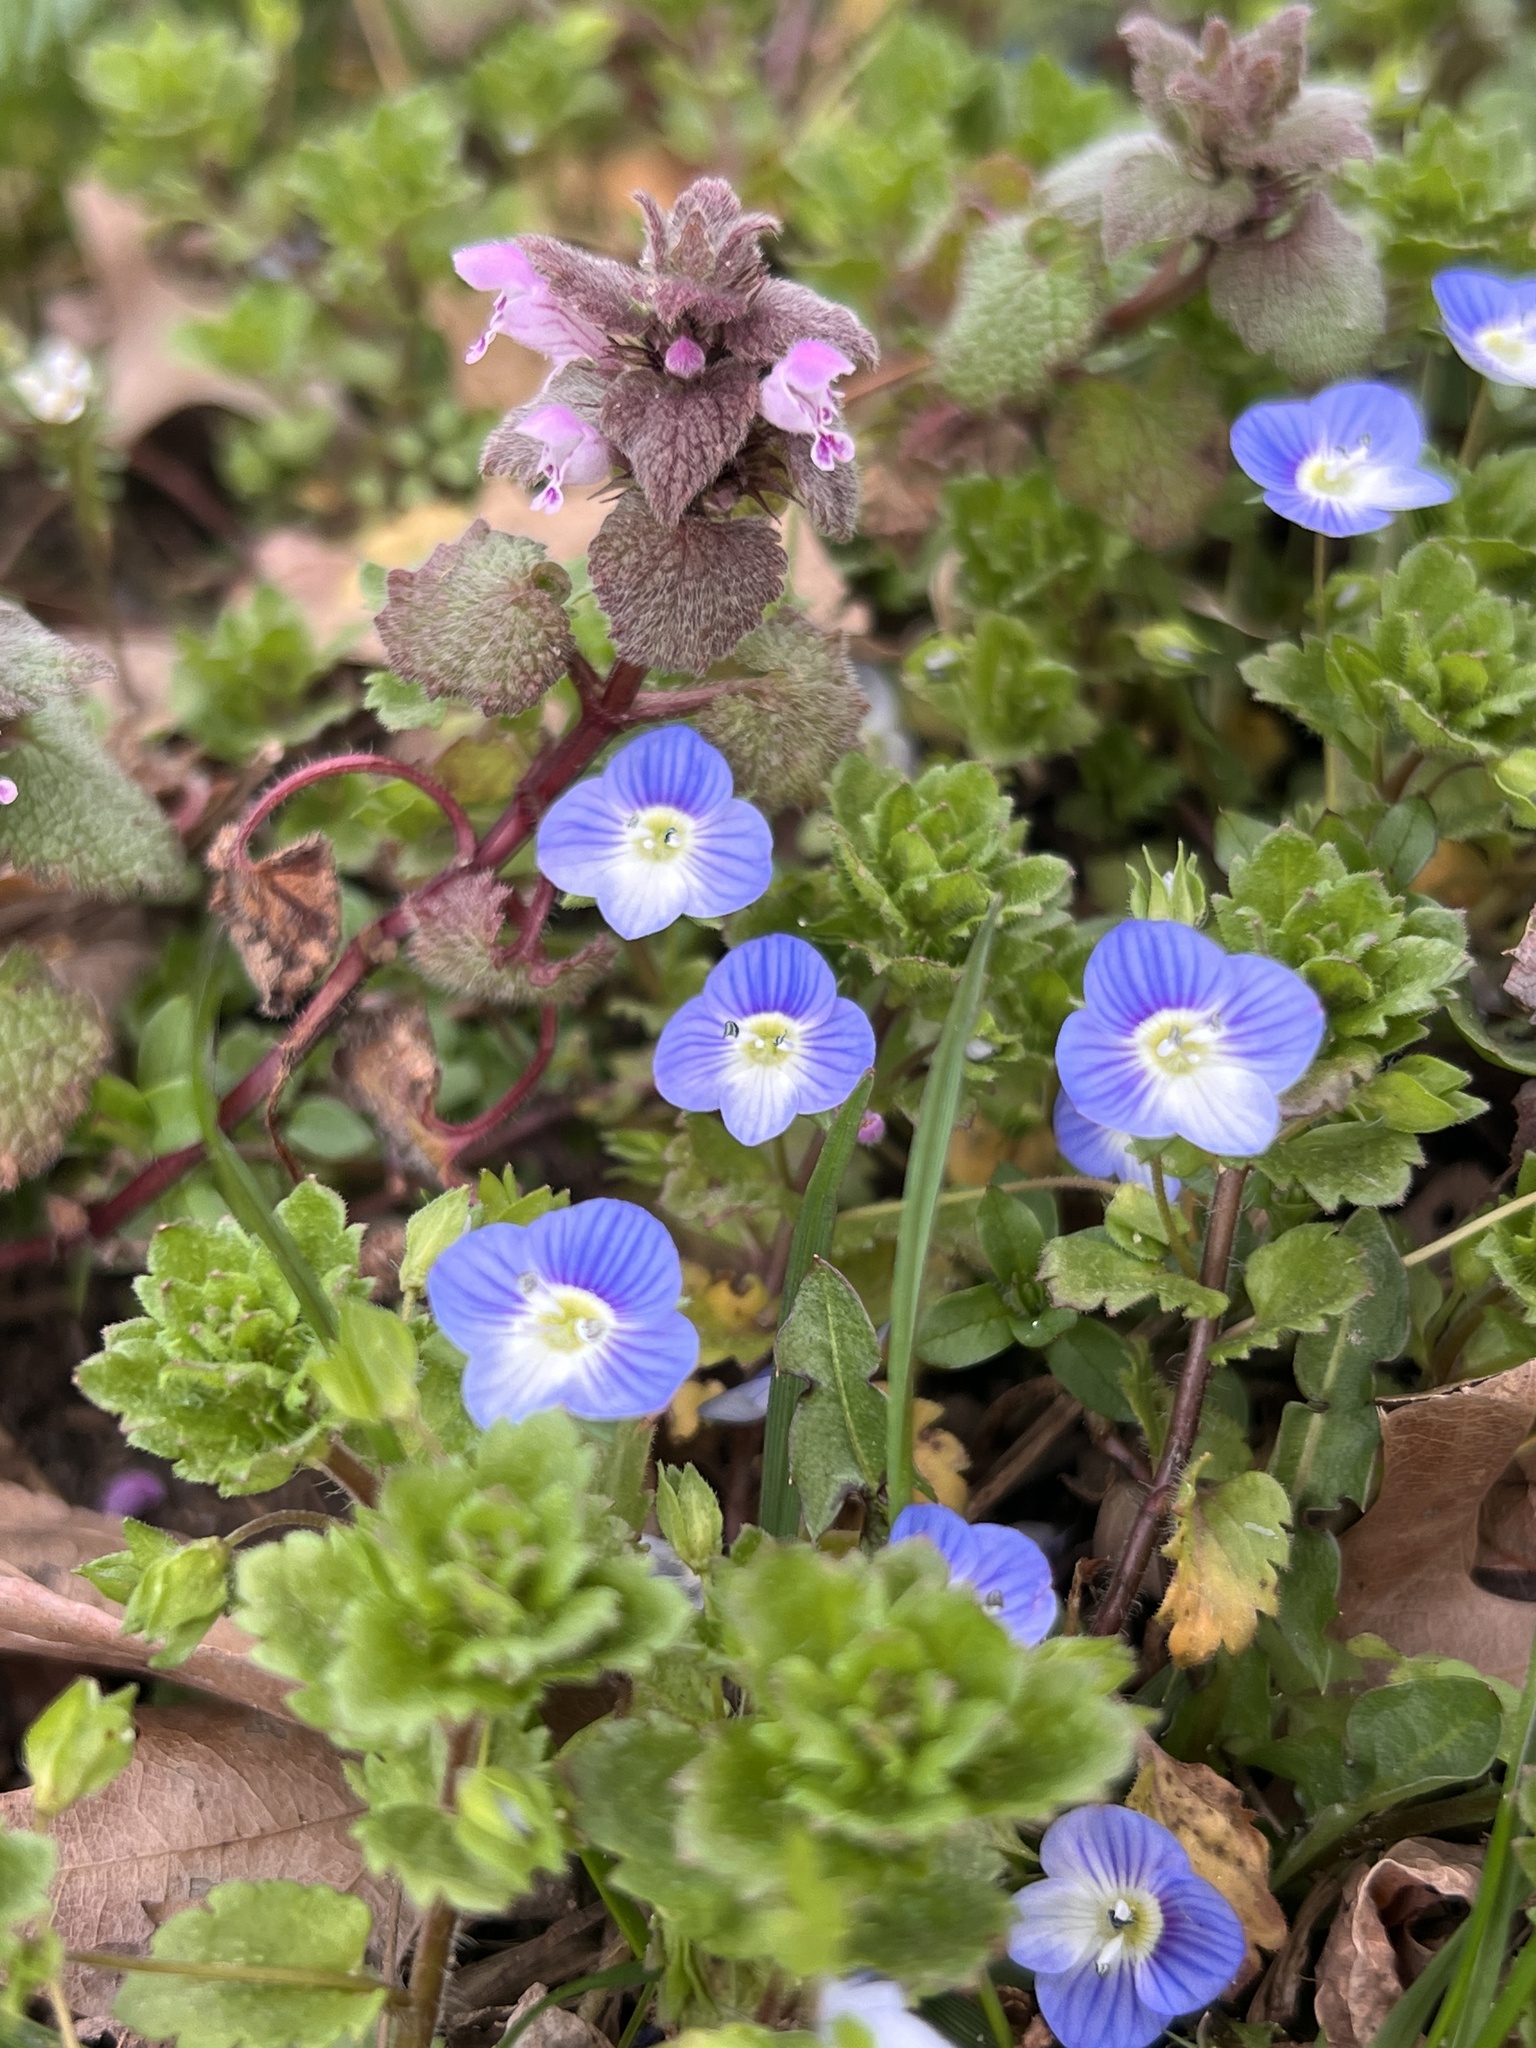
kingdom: Plantae
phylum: Tracheophyta
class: Magnoliopsida
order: Lamiales
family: Plantaginaceae
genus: Veronica
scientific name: Veronica persica
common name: Common field-speedwell
